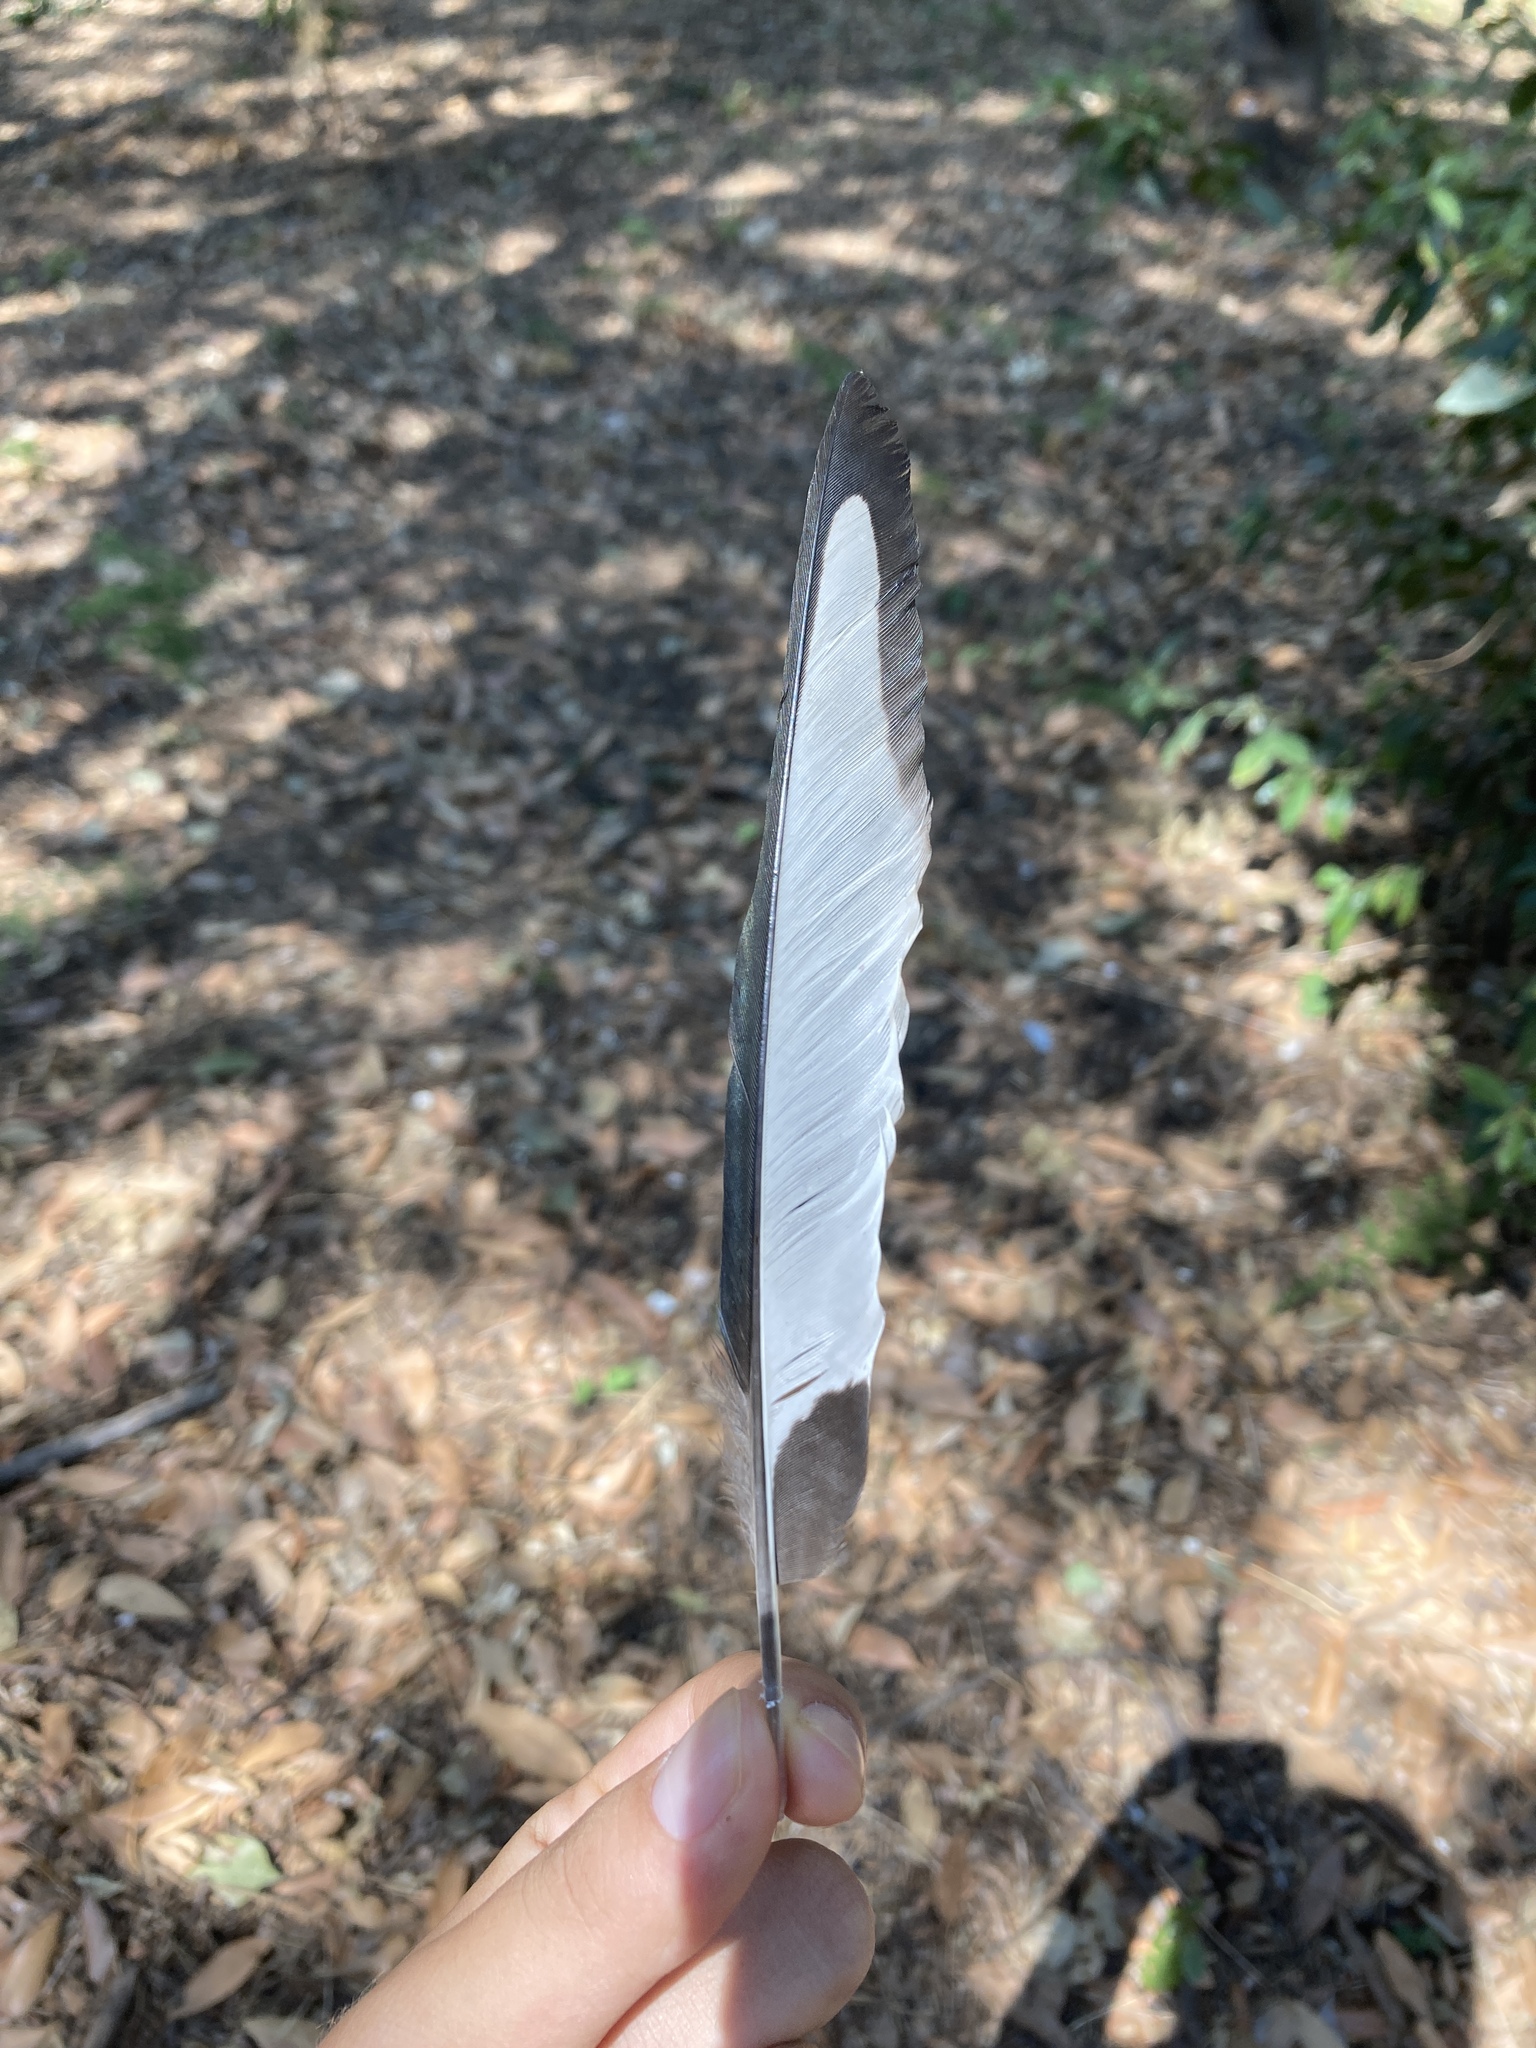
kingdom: Animalia
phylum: Chordata
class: Aves
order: Passeriformes
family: Corvidae
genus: Pica
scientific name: Pica pica
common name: Eurasian magpie
